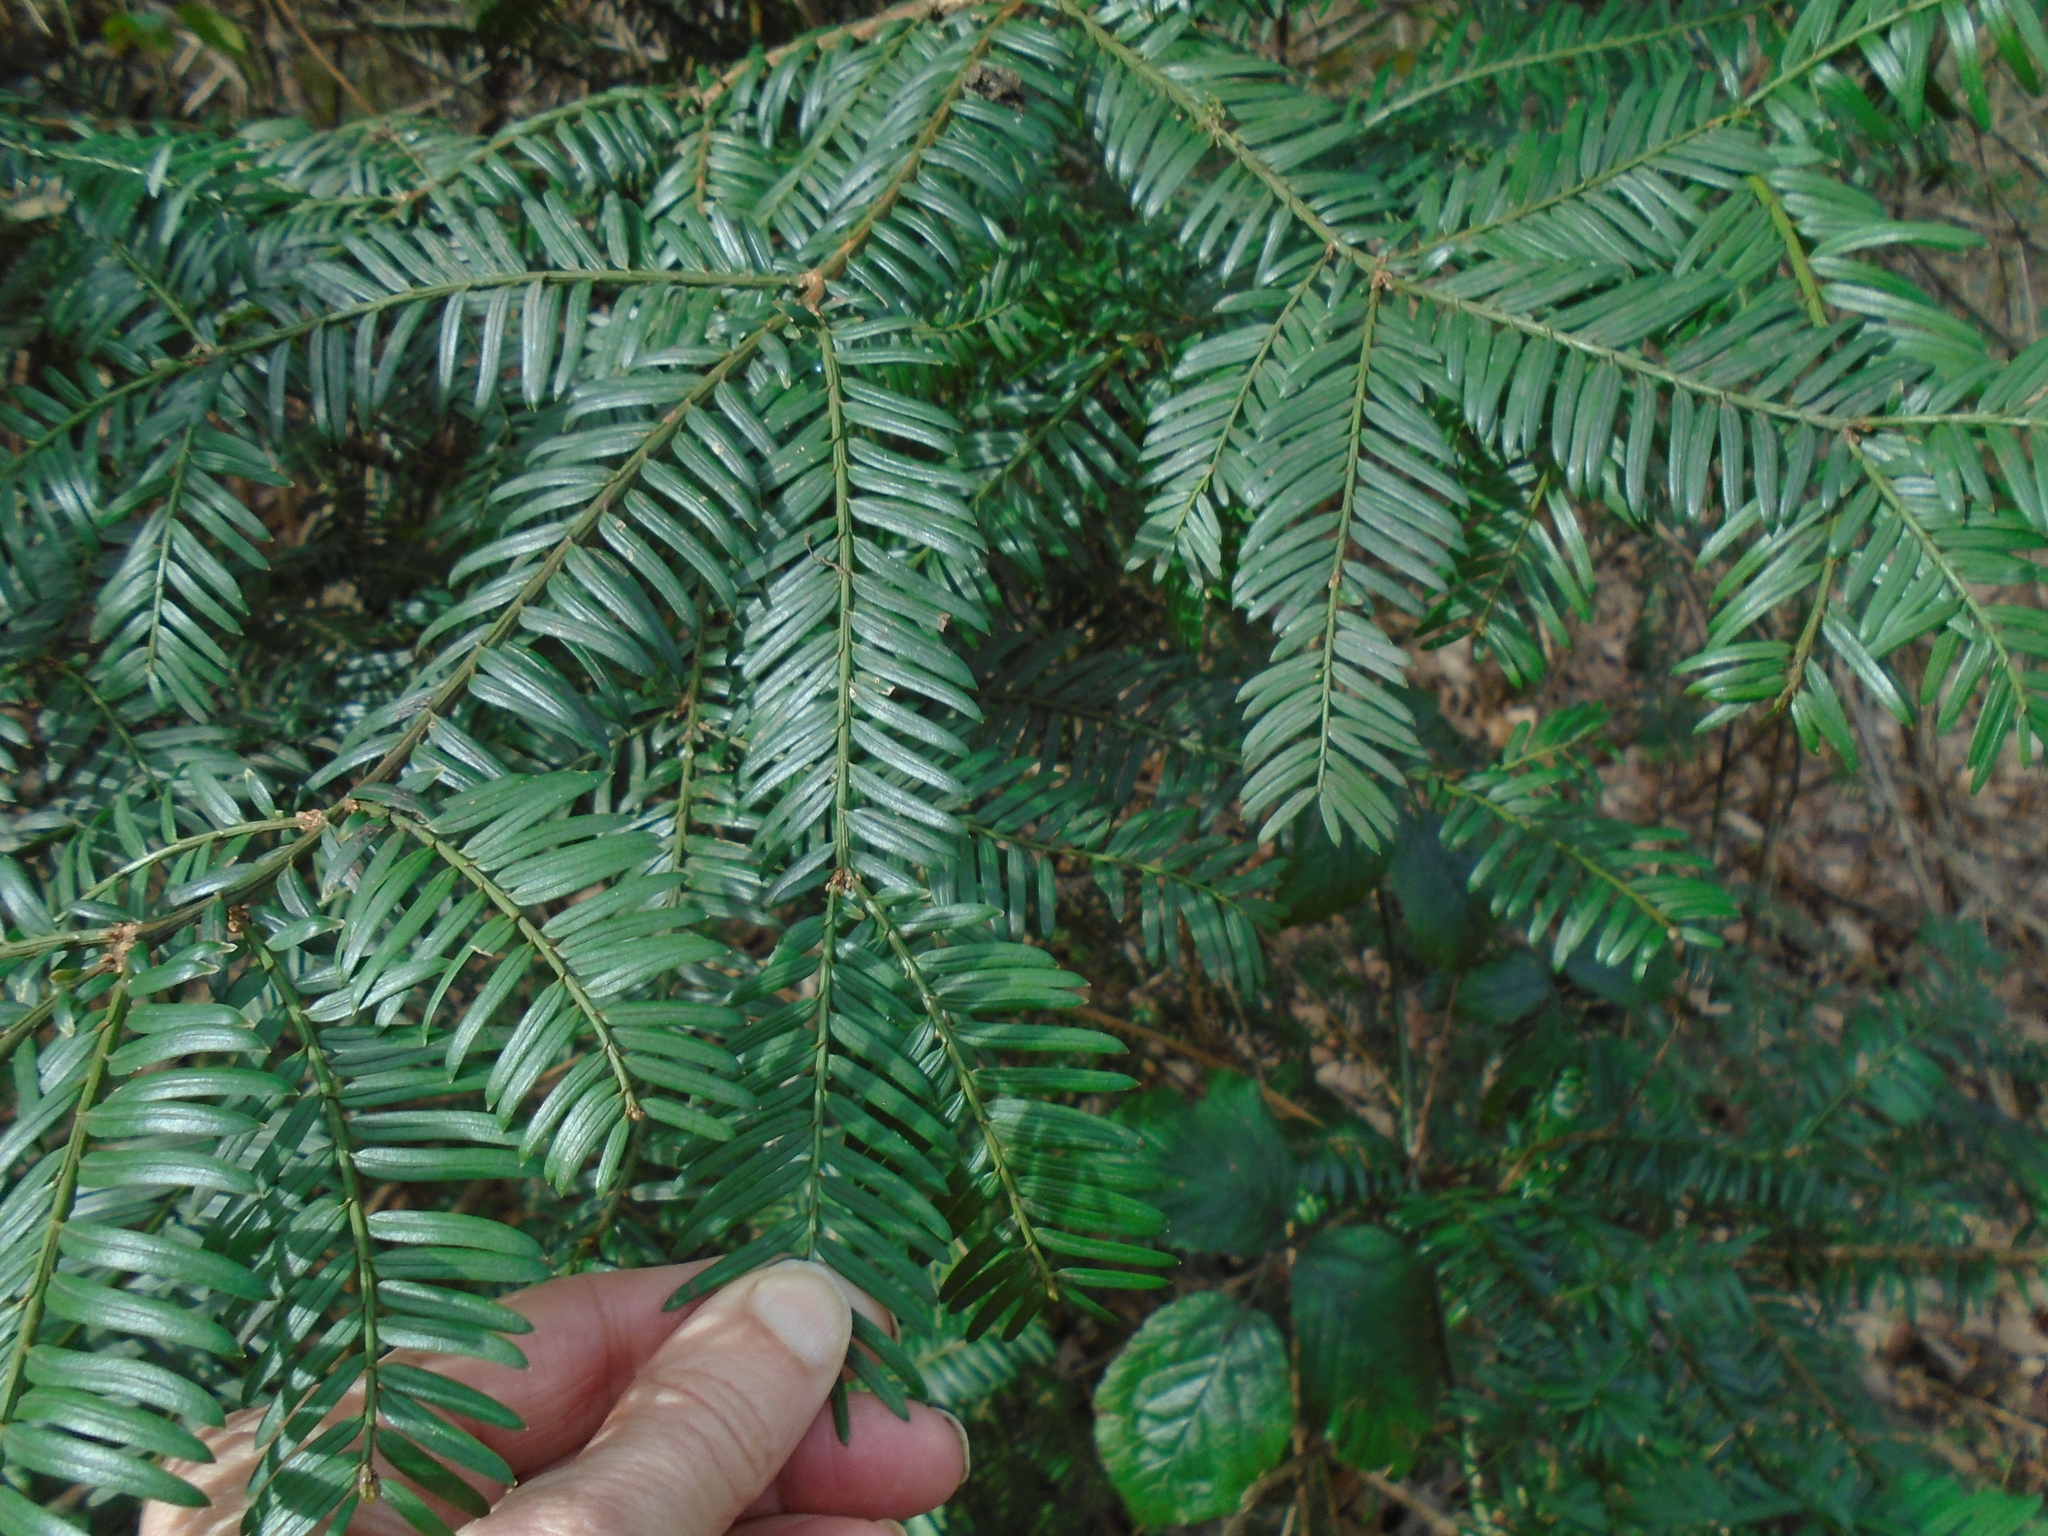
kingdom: Plantae
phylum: Tracheophyta
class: Pinopsida
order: Pinales
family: Taxaceae
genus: Taxus
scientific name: Taxus baccata
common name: Yew
